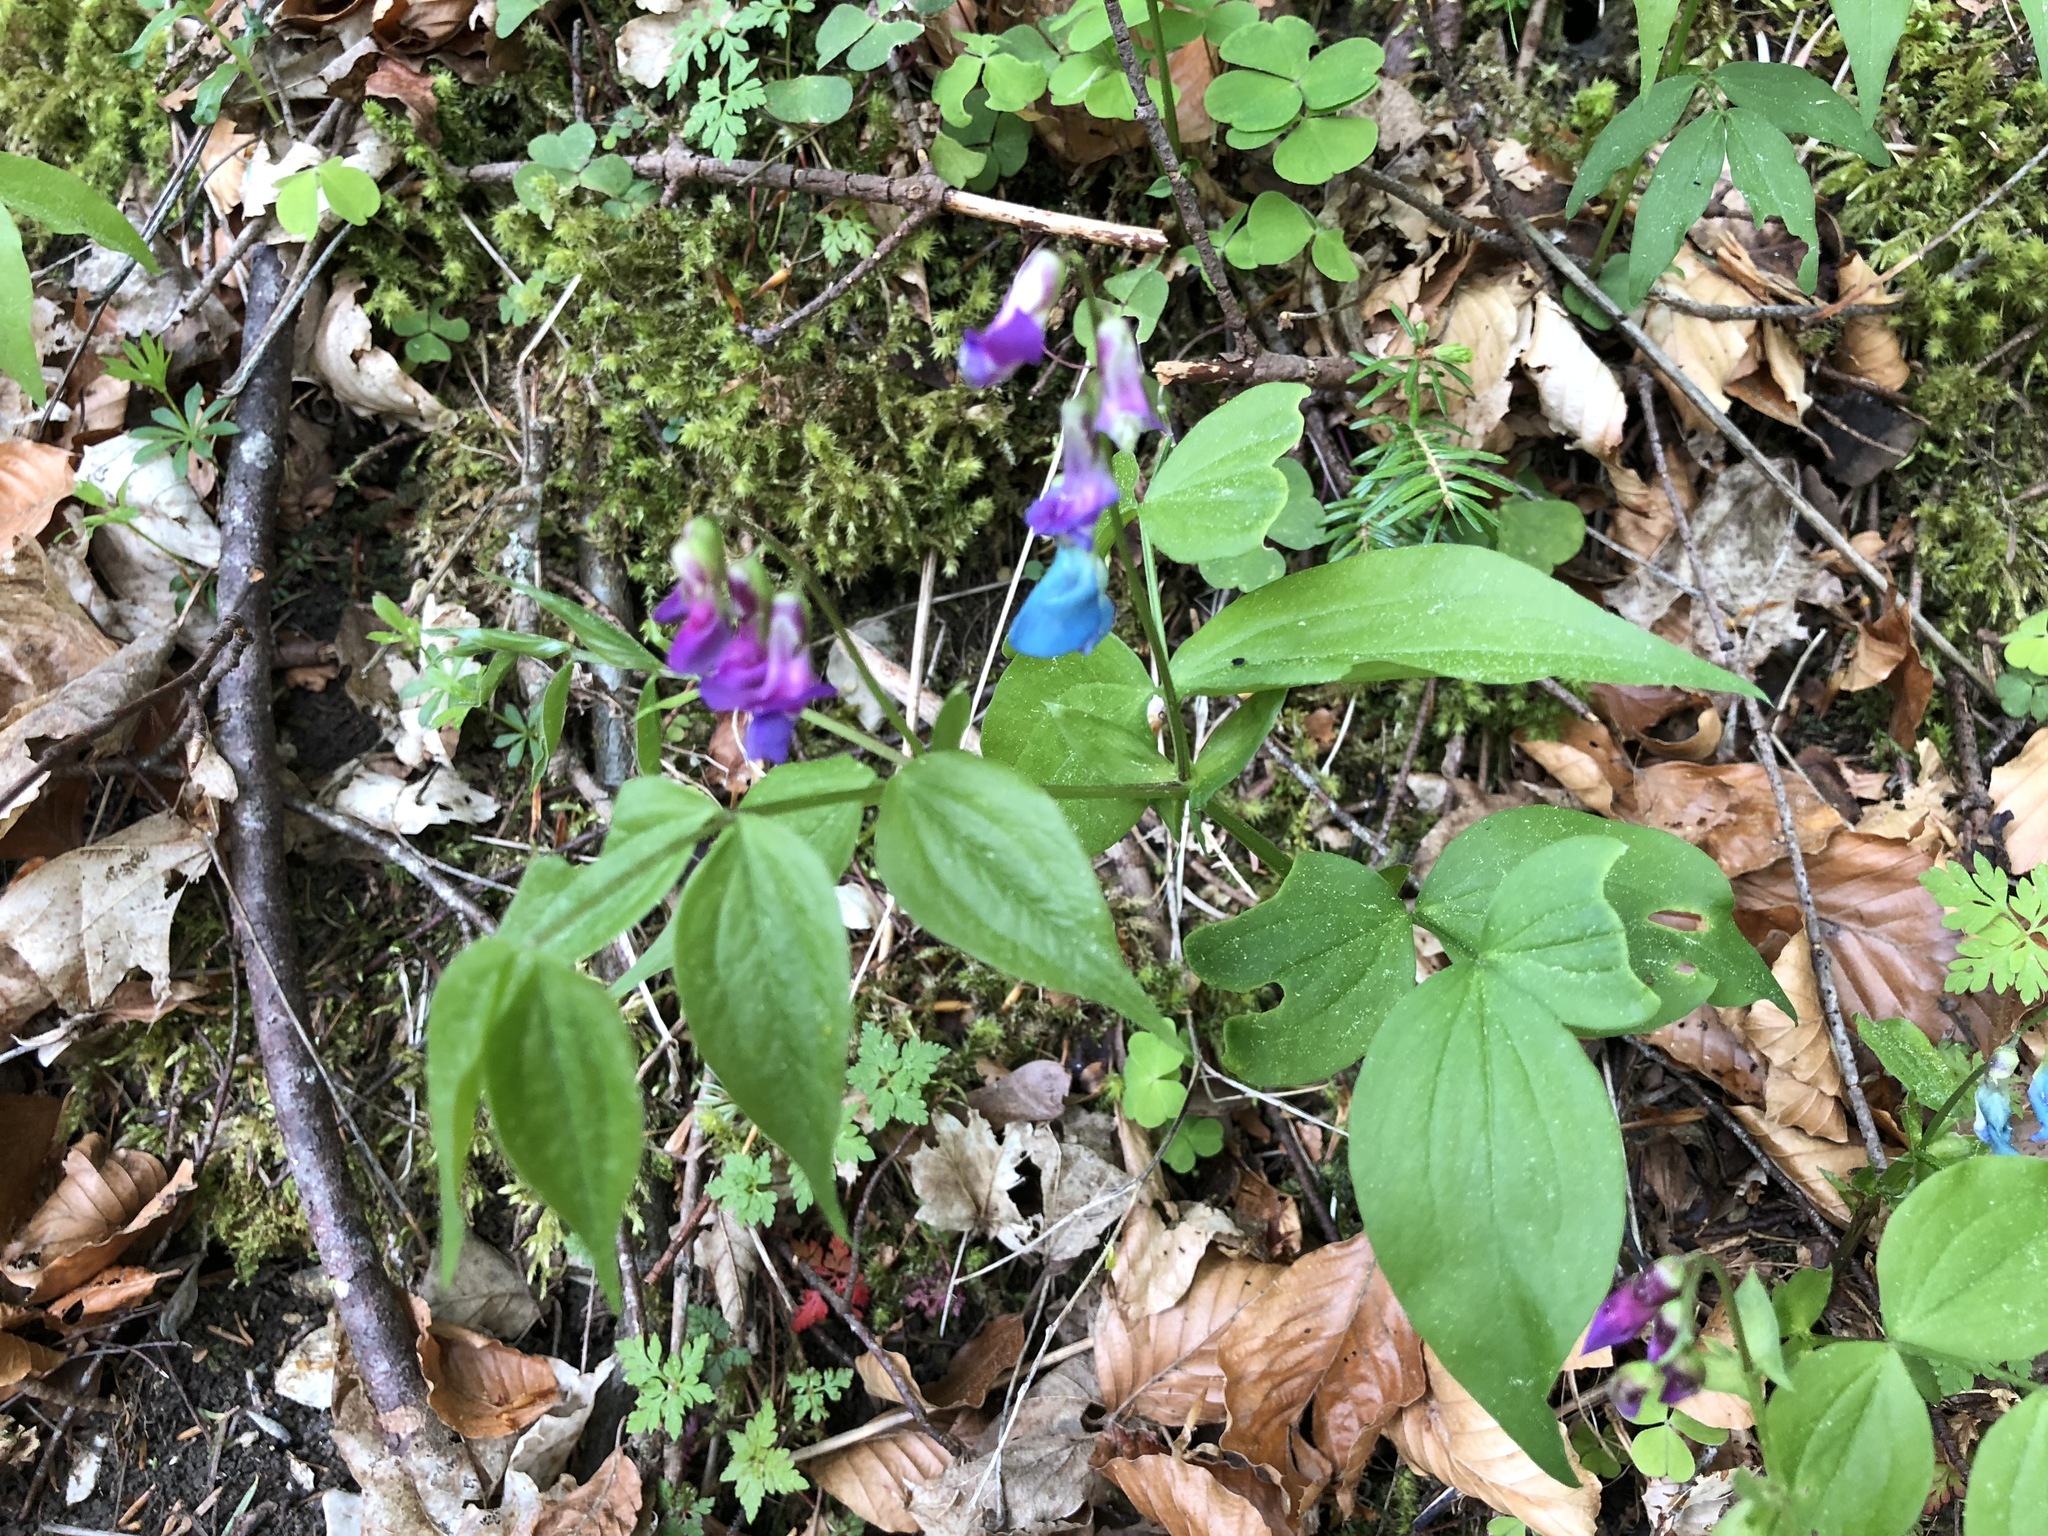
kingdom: Plantae
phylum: Tracheophyta
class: Magnoliopsida
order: Fabales
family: Fabaceae
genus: Lathyrus
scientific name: Lathyrus vernus
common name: Spring pea
